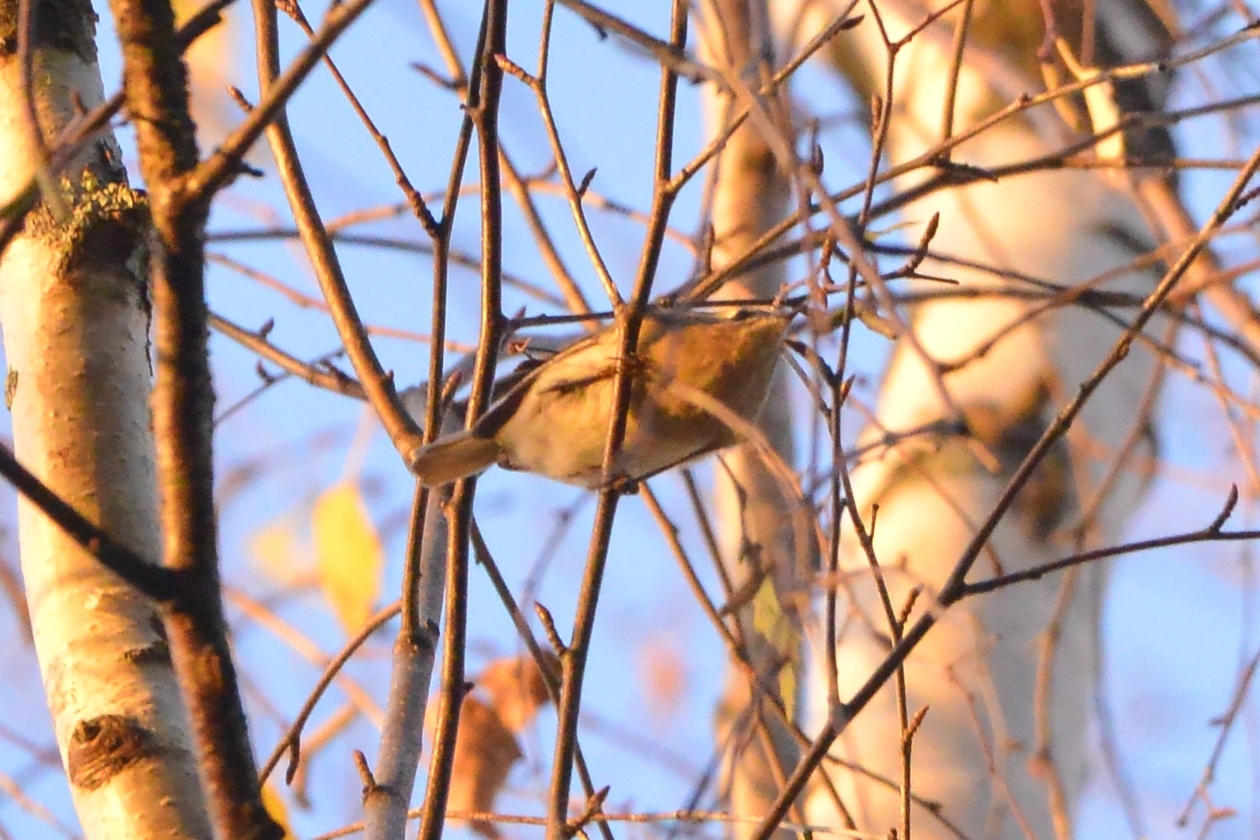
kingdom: Animalia
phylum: Chordata
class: Aves
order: Passeriformes
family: Regulidae
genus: Regulus
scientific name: Regulus regulus
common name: Goldcrest
